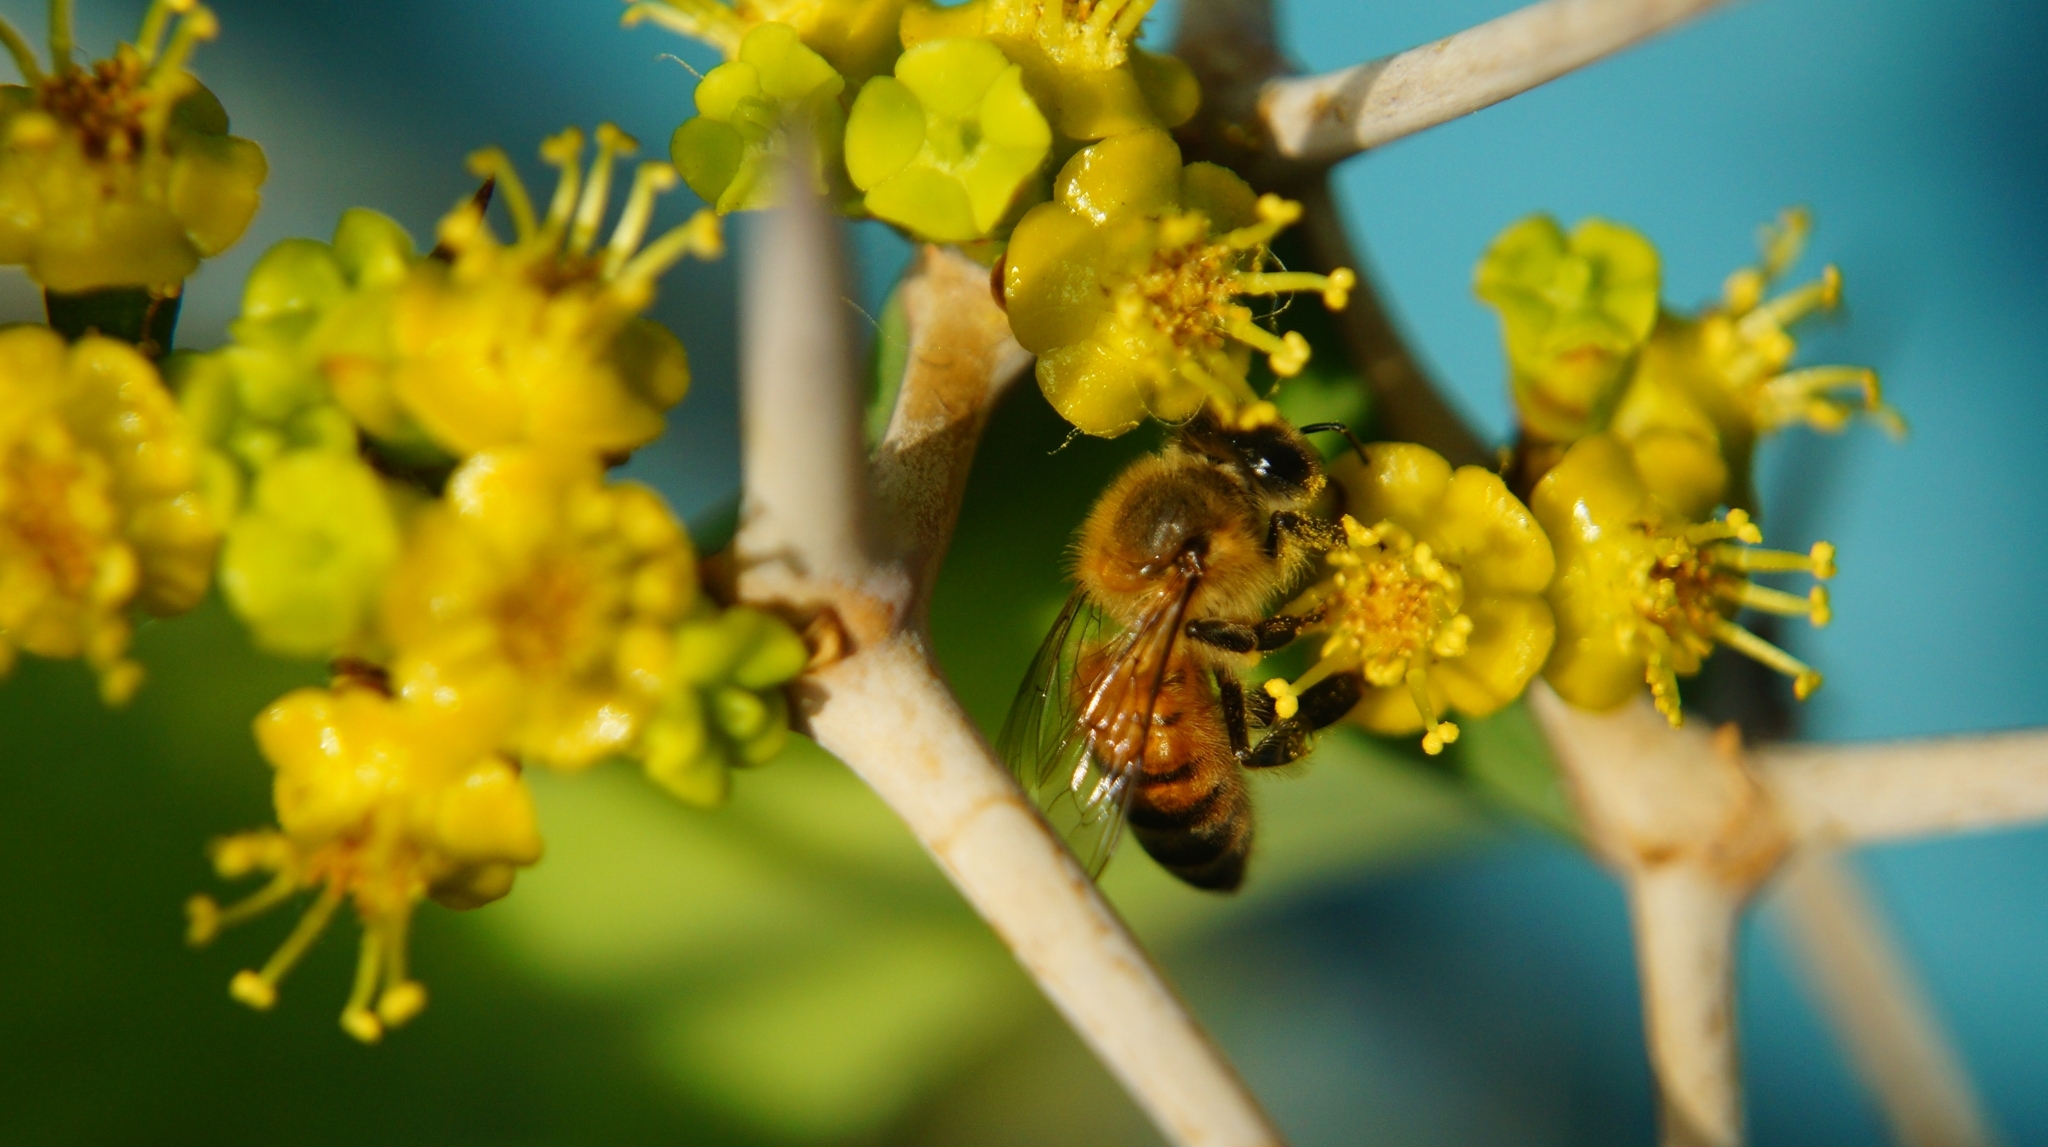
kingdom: Animalia
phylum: Arthropoda
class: Insecta
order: Hymenoptera
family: Apidae
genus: Apis
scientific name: Apis mellifera
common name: Honey bee
